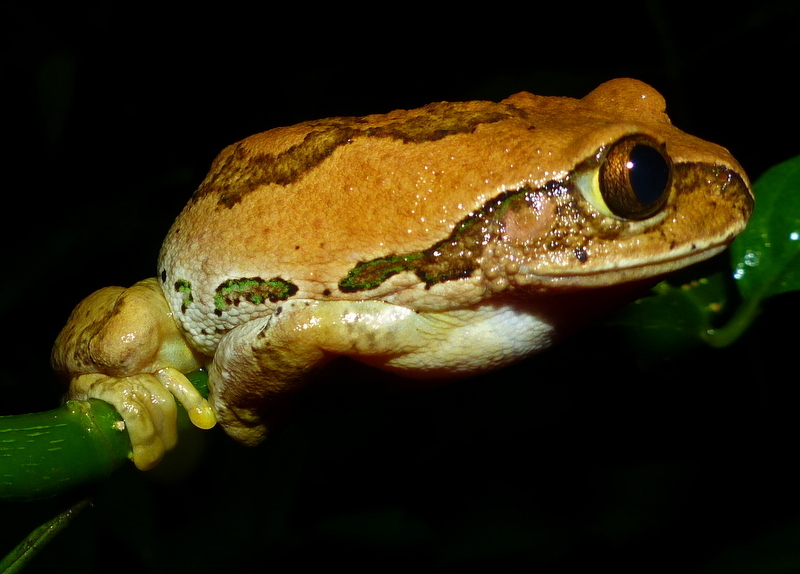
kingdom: Animalia
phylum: Chordata
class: Amphibia
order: Anura
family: Arthroleptidae
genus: Leptopelis
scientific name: Leptopelis flavomaculatus
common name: Johnston's treefrog
